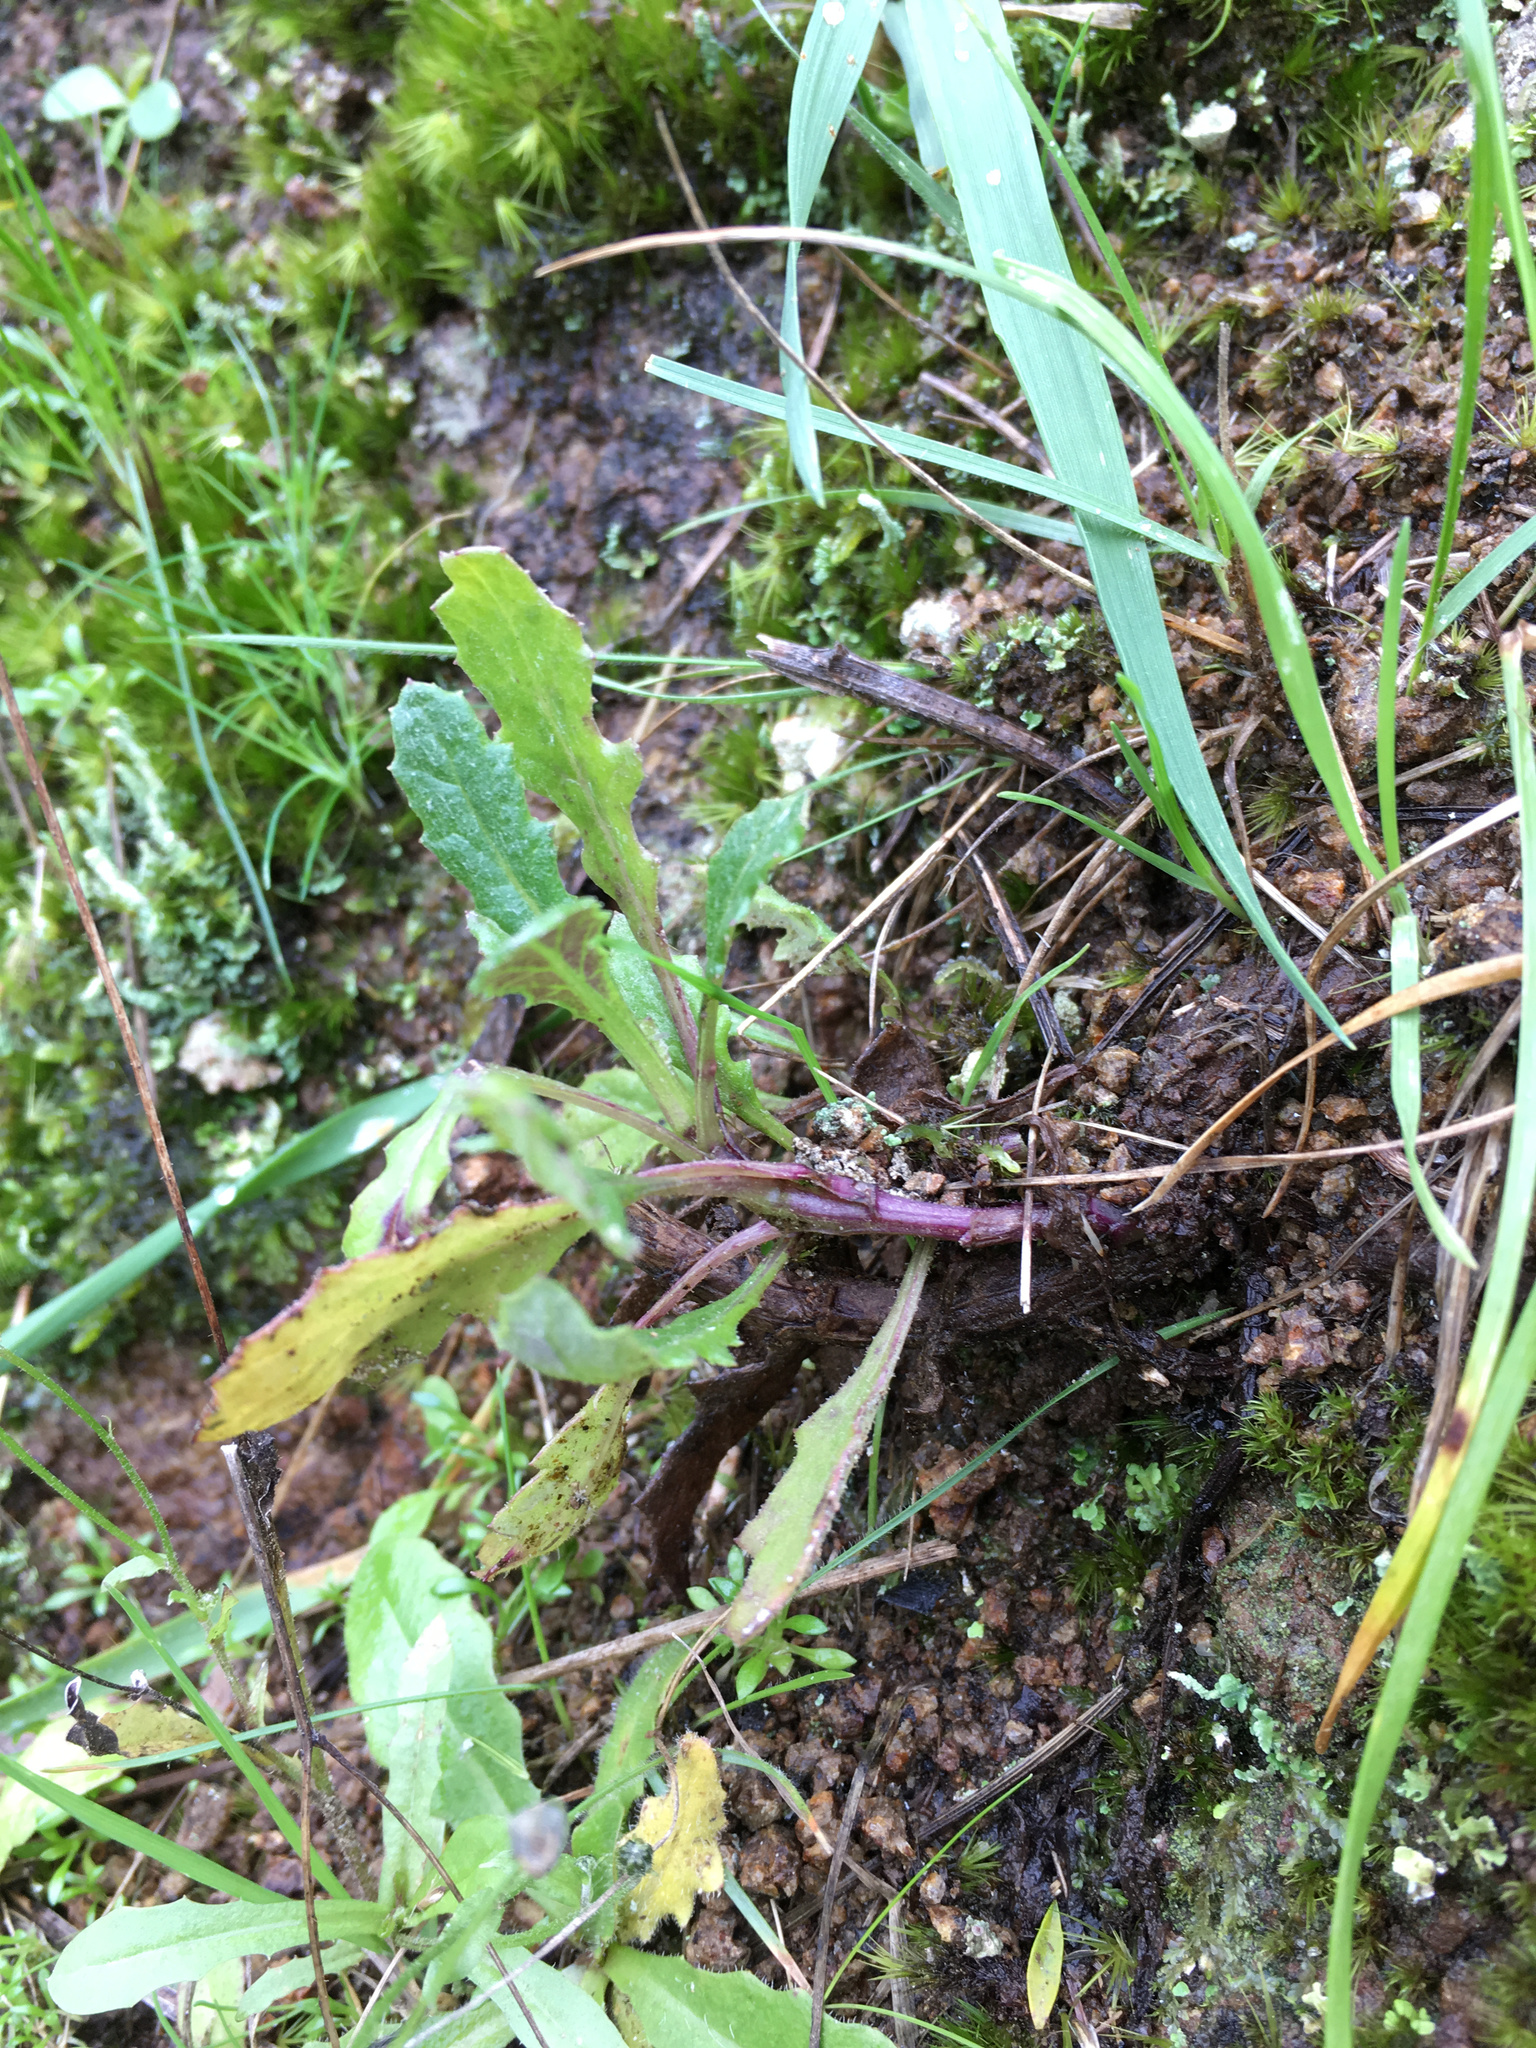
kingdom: Plantae
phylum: Tracheophyta
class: Magnoliopsida
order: Asterales
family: Asteraceae
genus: Senecio
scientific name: Senecio glomeratus
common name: Cutleaf burnweed
